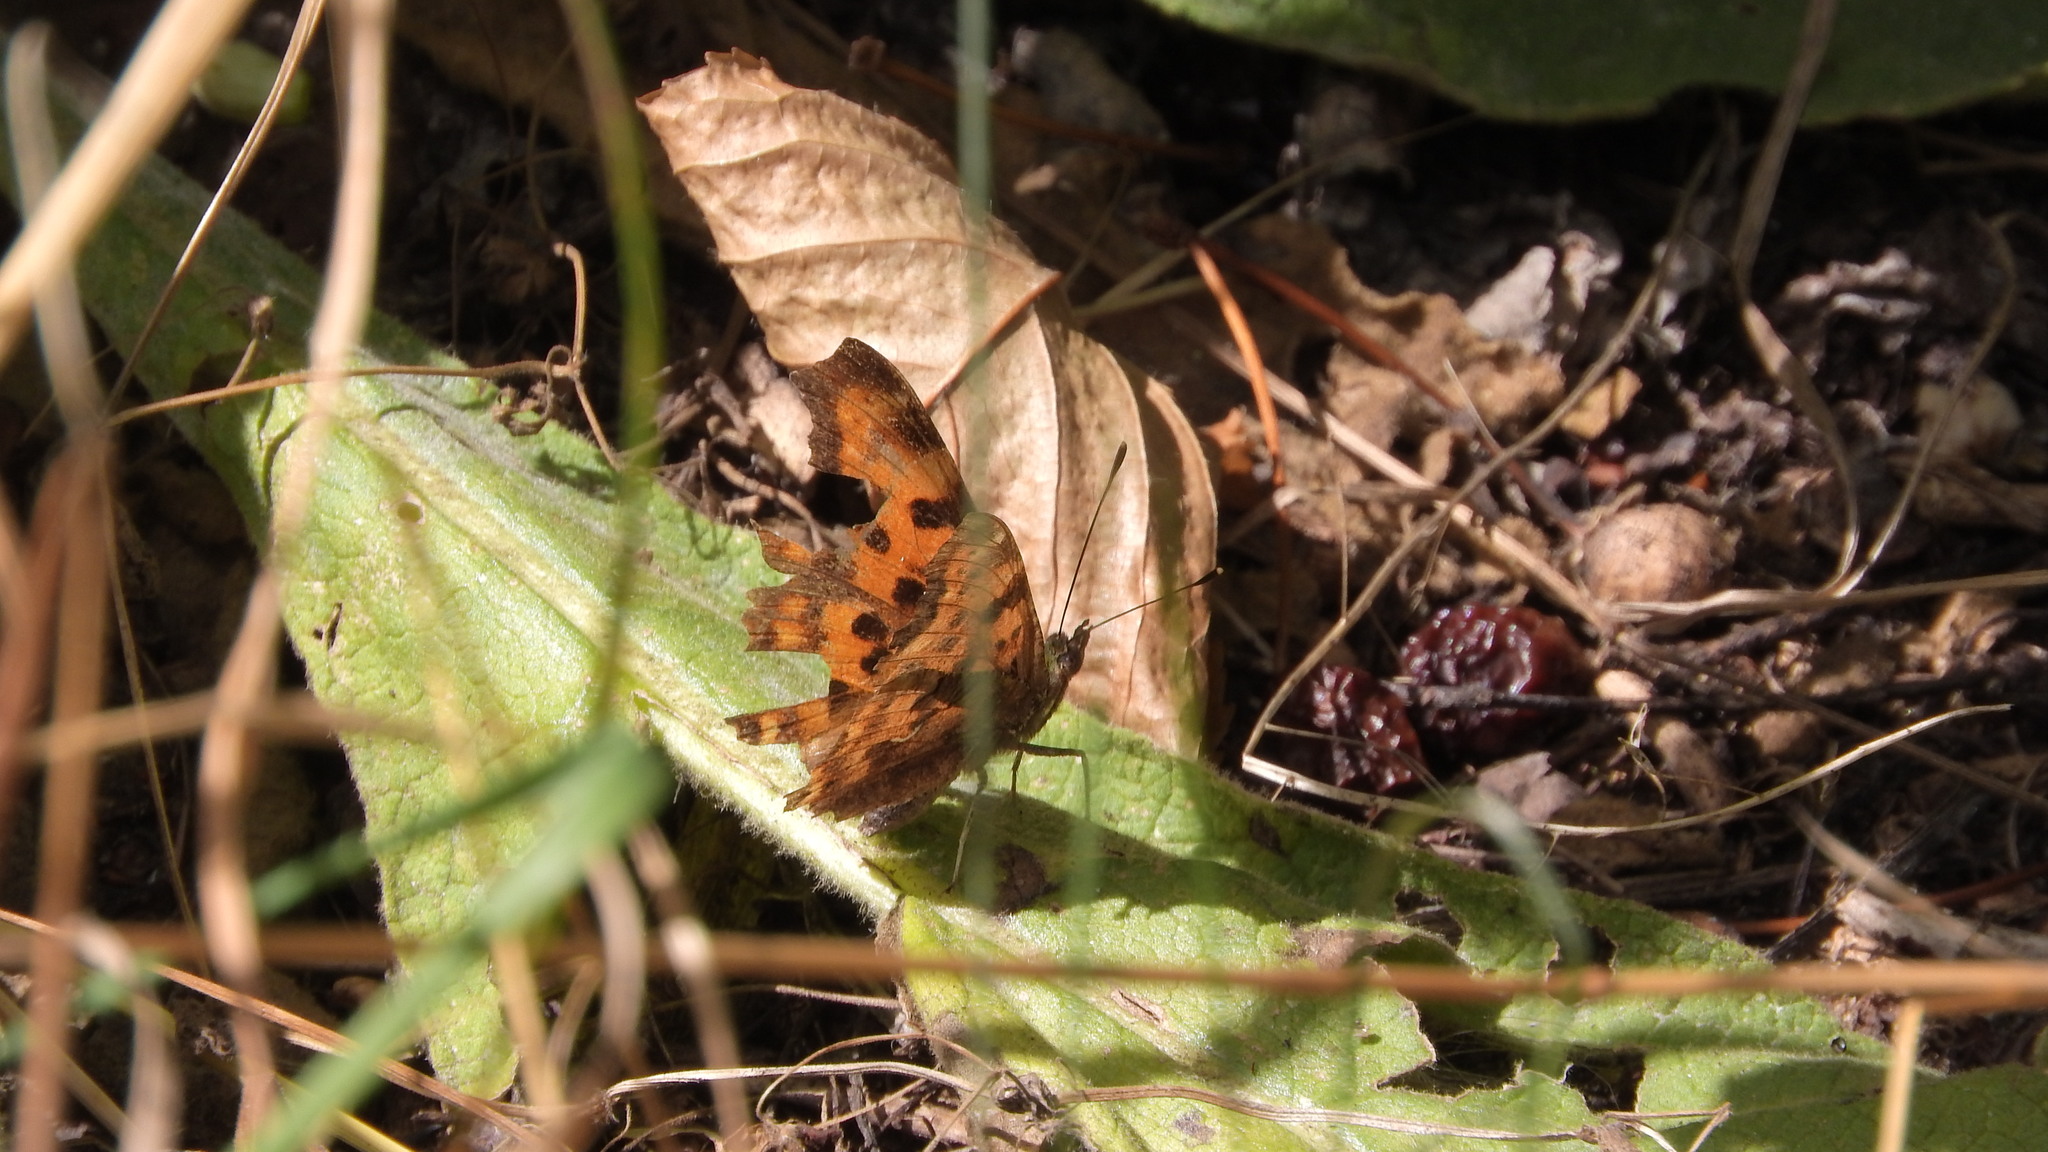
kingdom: Animalia
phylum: Arthropoda
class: Insecta
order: Lepidoptera
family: Nymphalidae
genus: Polygonia
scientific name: Polygonia c-album
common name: Comma
